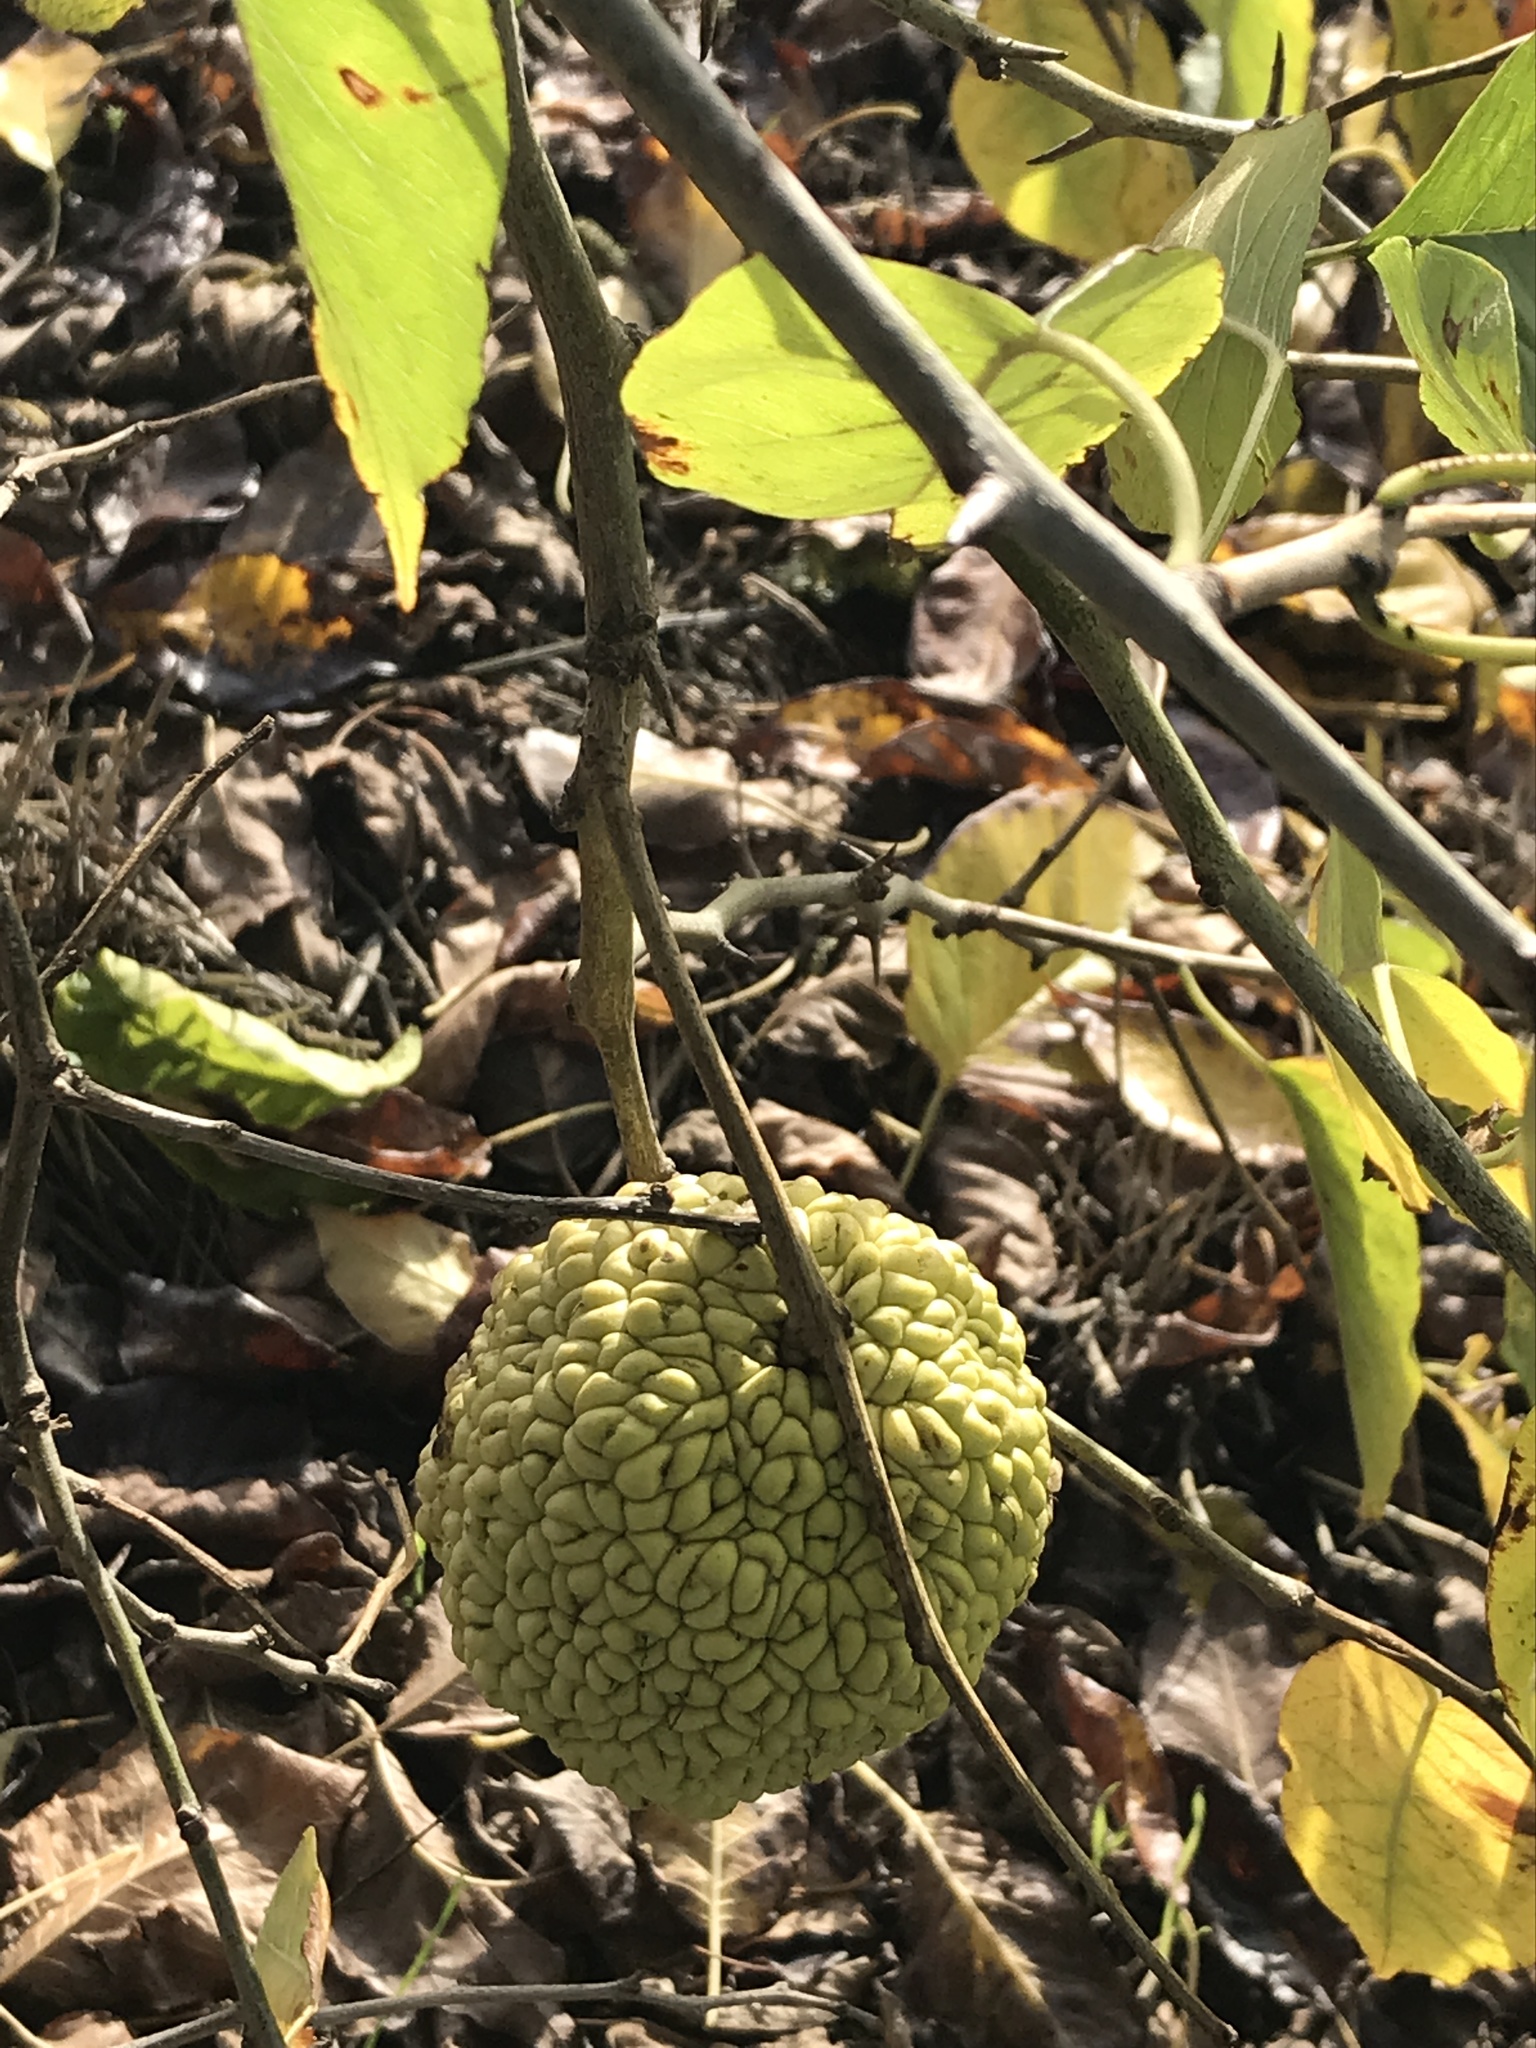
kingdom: Plantae
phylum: Tracheophyta
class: Magnoliopsida
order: Rosales
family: Moraceae
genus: Maclura
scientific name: Maclura pomifera
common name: Osage-orange
